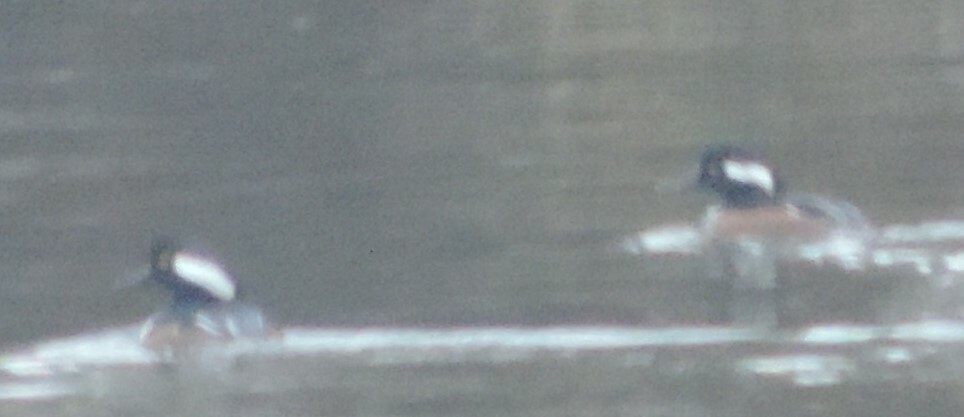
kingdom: Animalia
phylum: Chordata
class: Aves
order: Anseriformes
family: Anatidae
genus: Lophodytes
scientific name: Lophodytes cucullatus
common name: Hooded merganser
